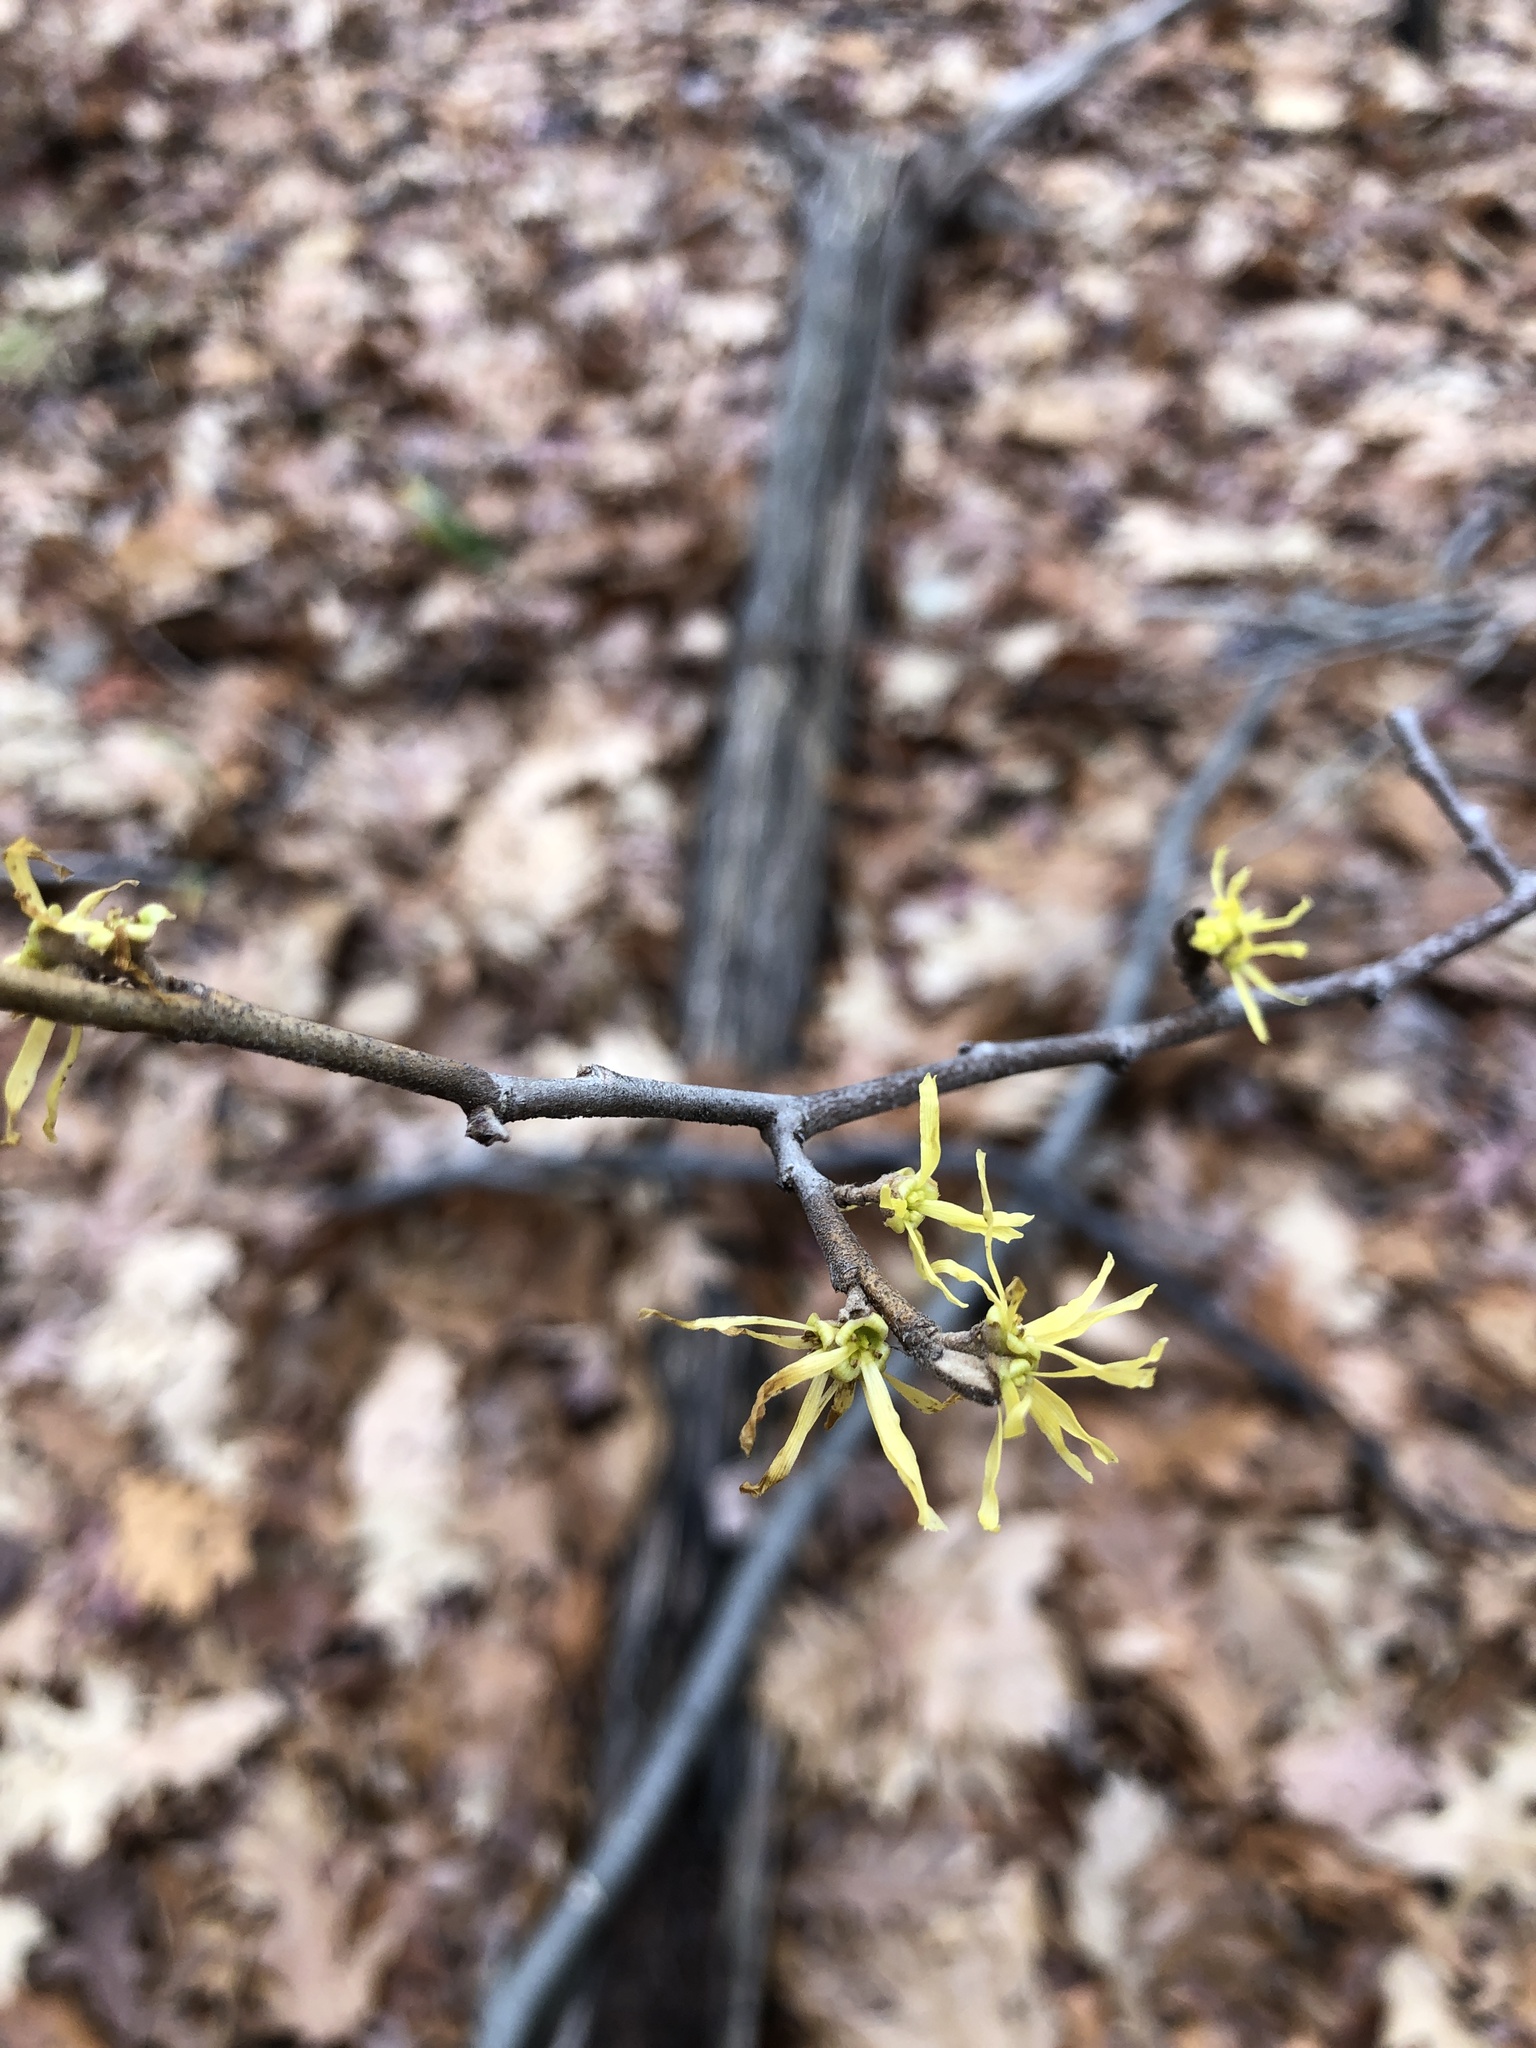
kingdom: Plantae
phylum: Tracheophyta
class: Magnoliopsida
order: Saxifragales
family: Hamamelidaceae
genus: Hamamelis
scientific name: Hamamelis virginiana
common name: Witch-hazel
